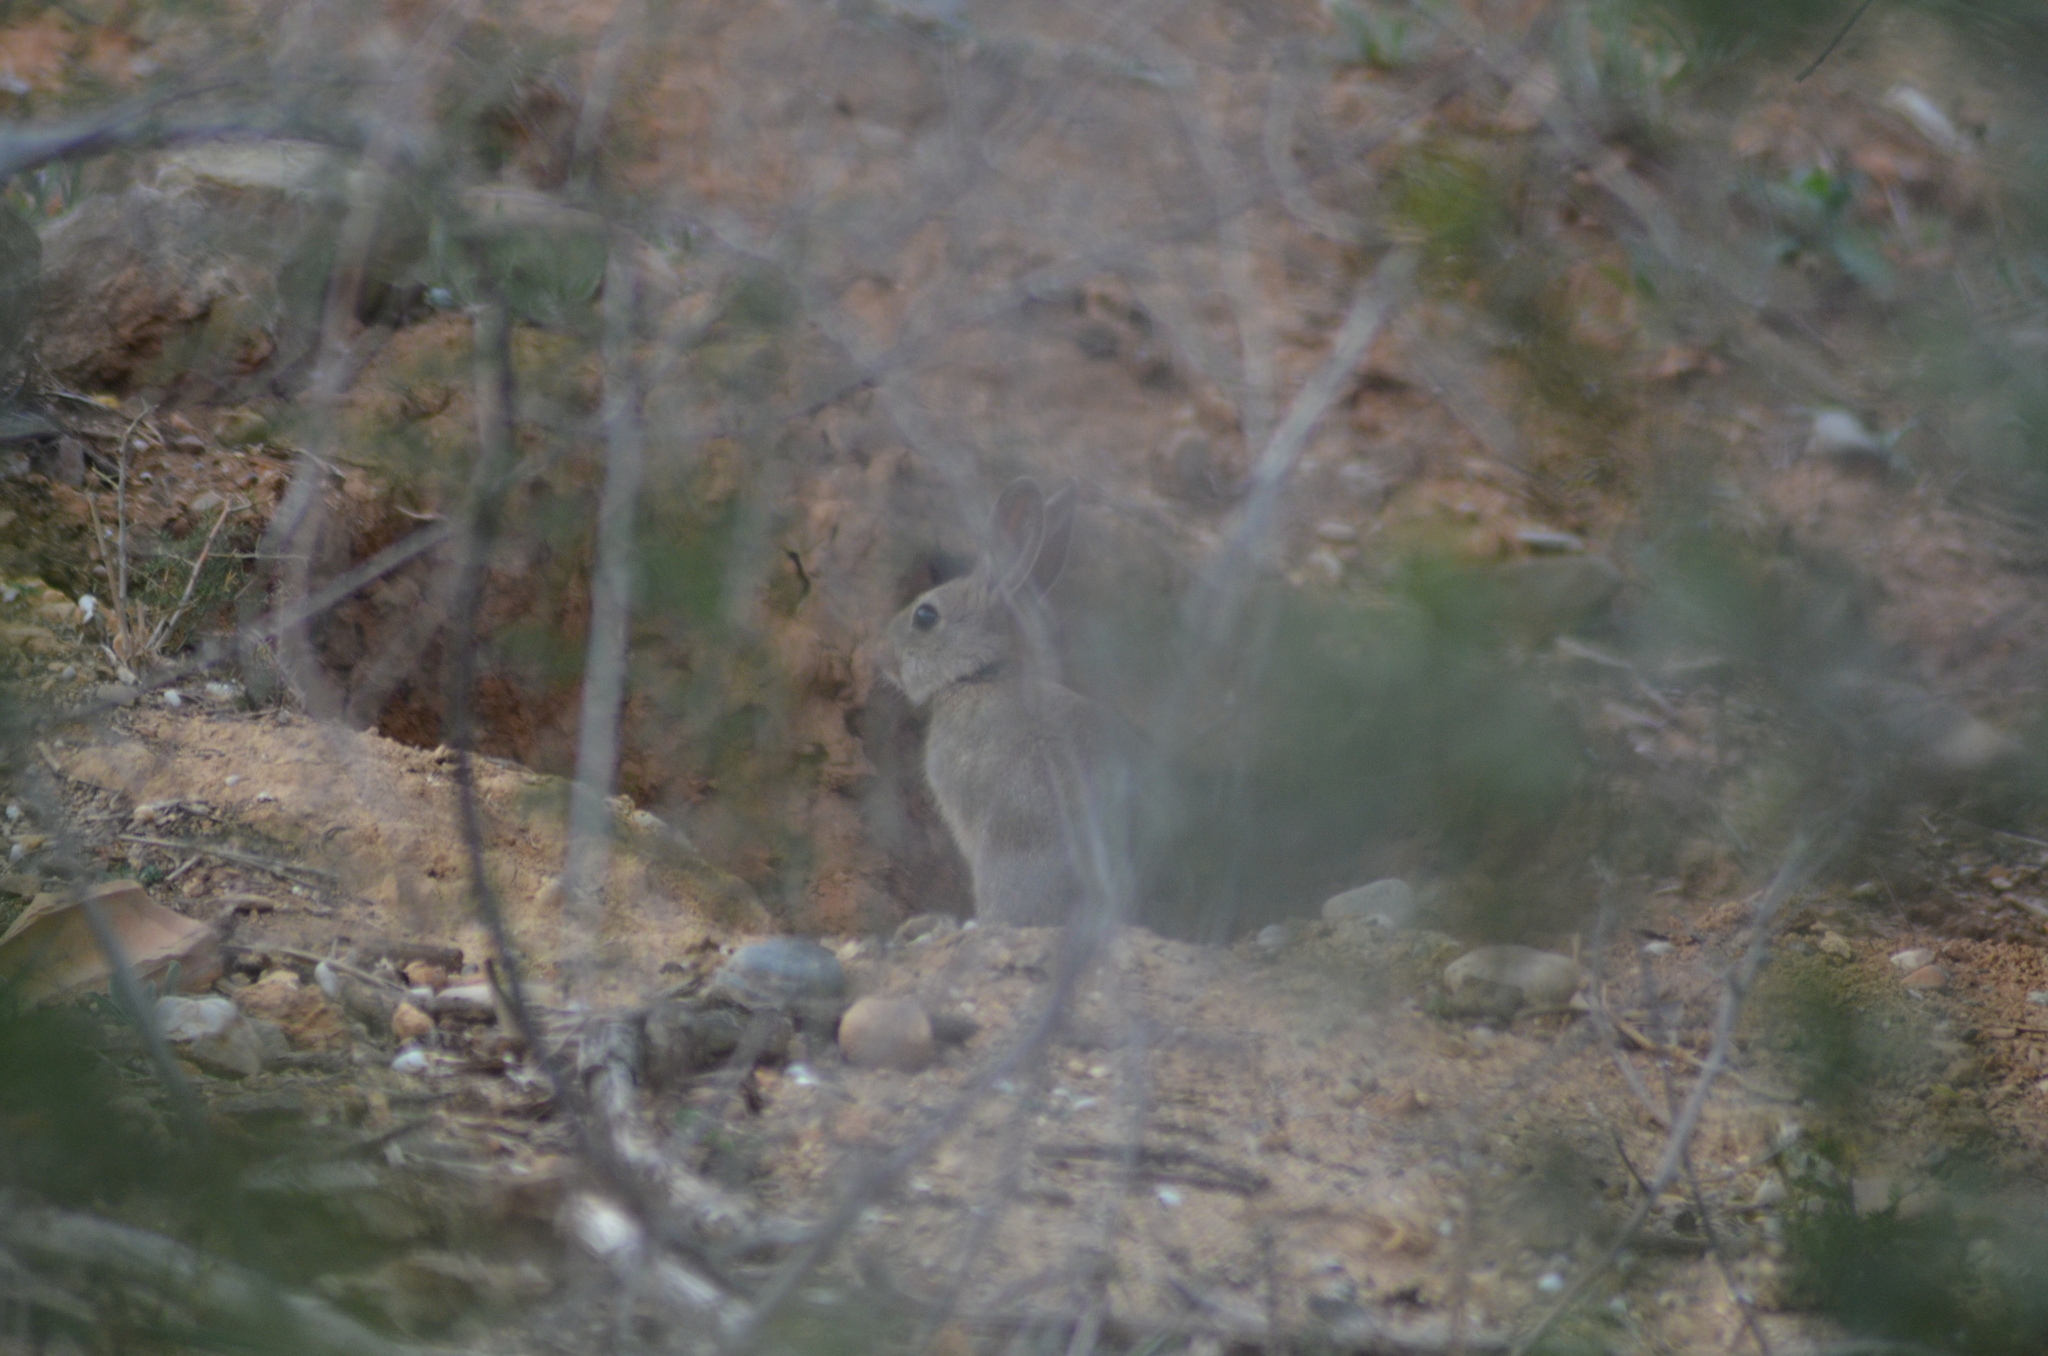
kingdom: Animalia
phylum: Chordata
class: Mammalia
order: Lagomorpha
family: Leporidae
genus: Oryctolagus
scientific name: Oryctolagus cuniculus
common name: European rabbit
